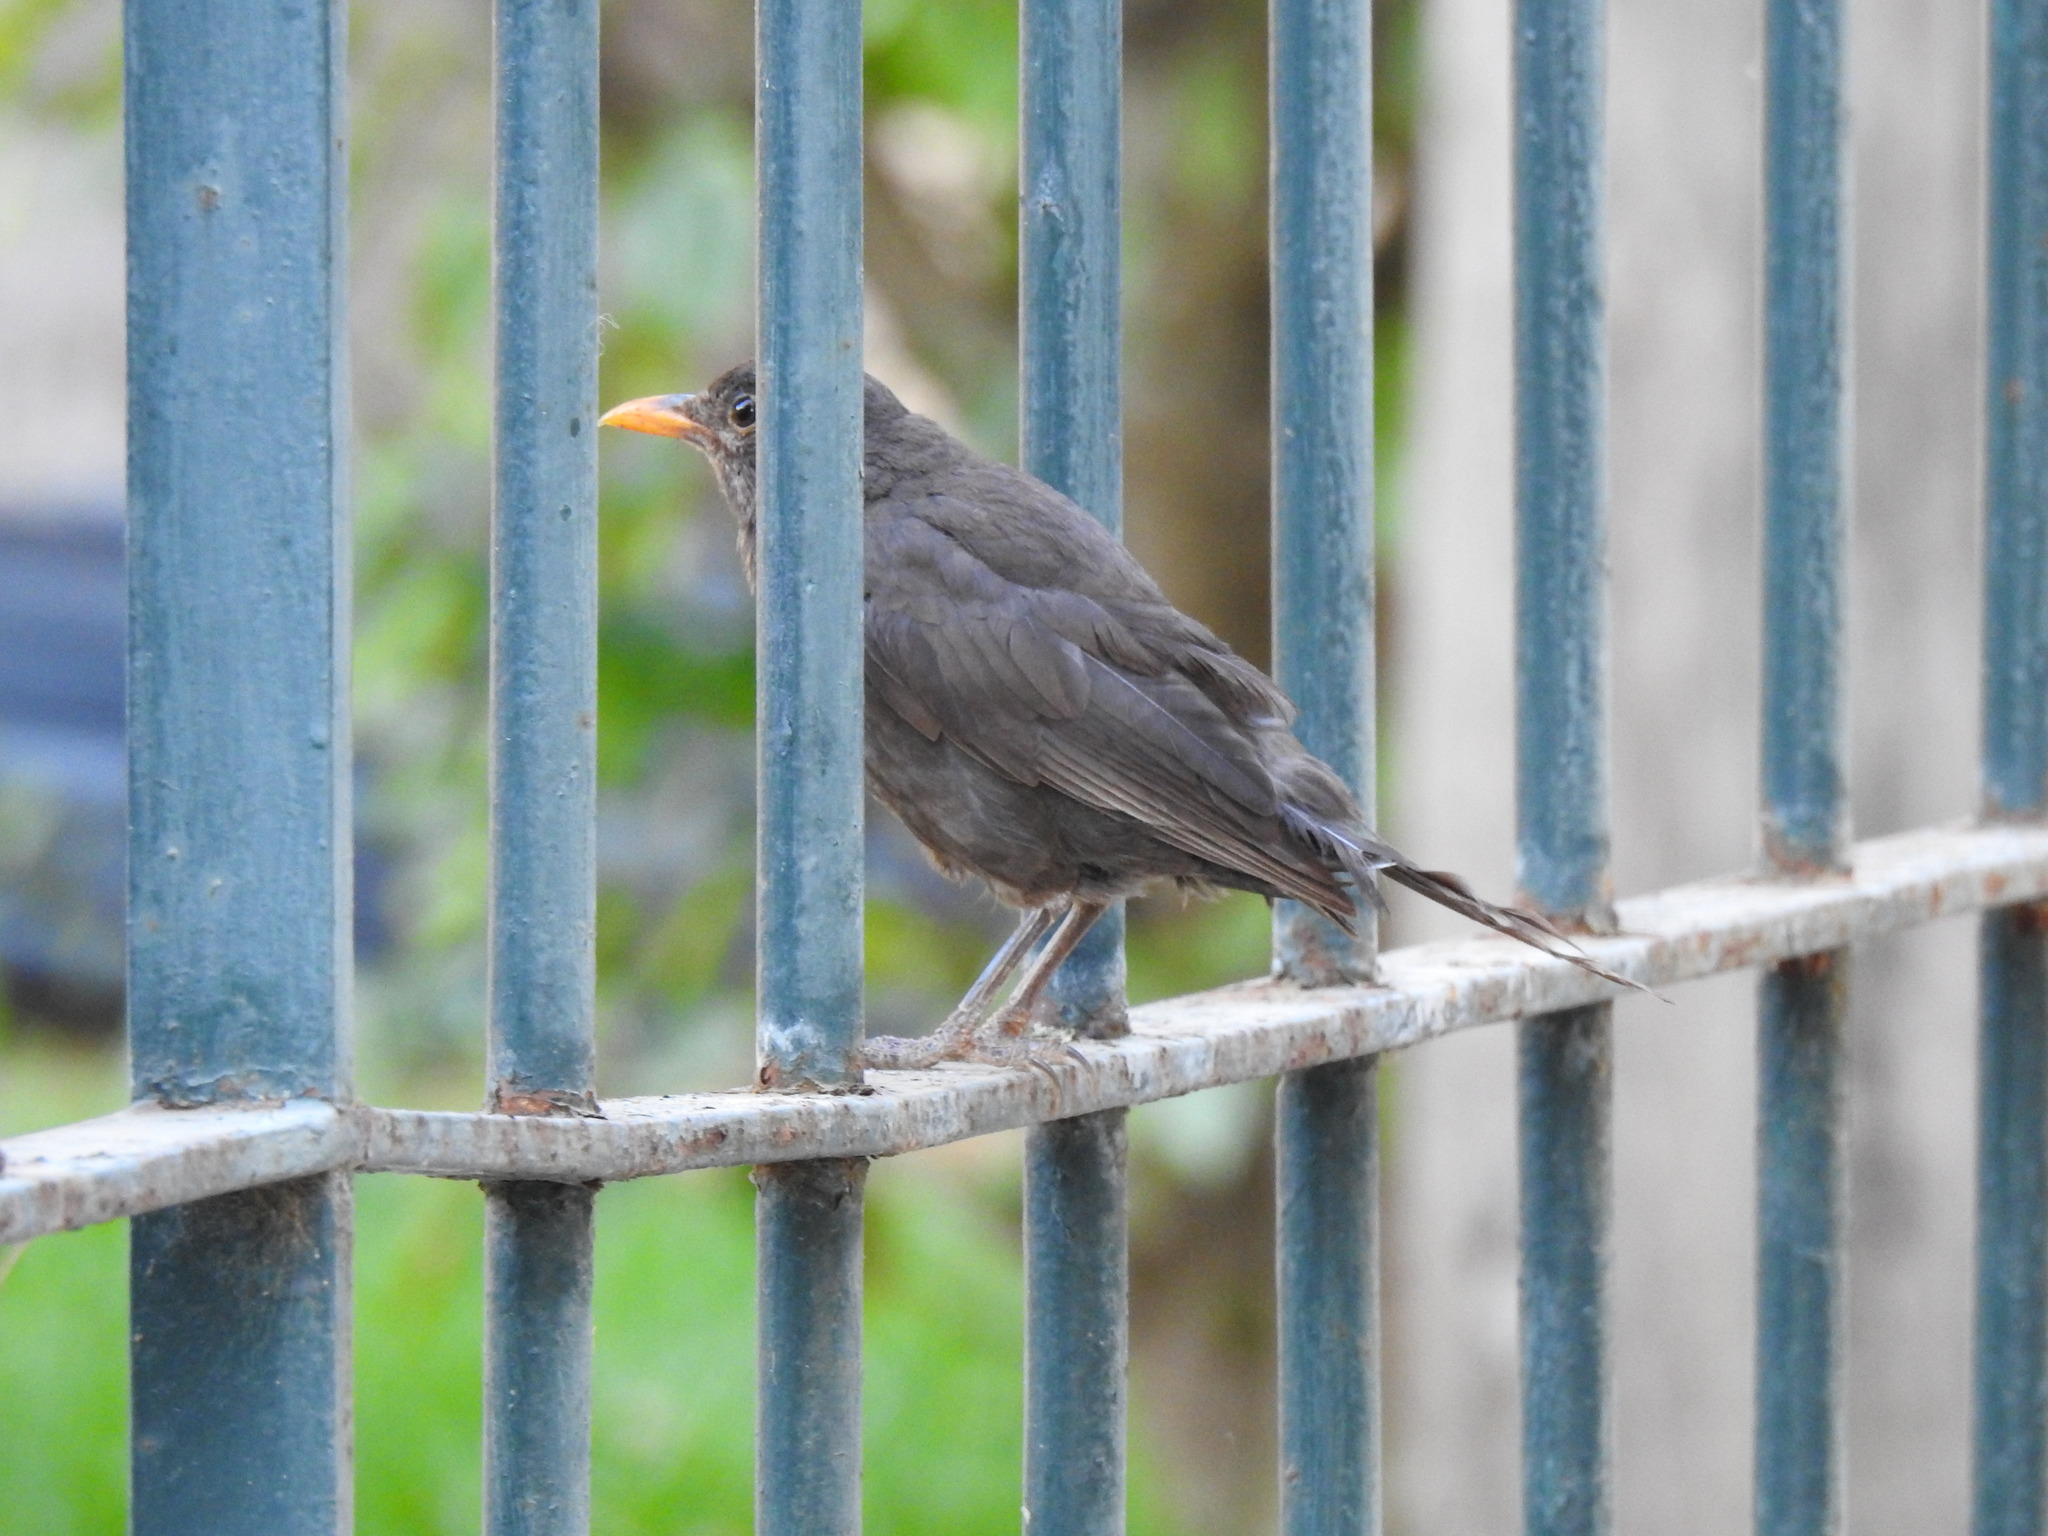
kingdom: Animalia
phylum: Chordata
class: Aves
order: Passeriformes
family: Turdidae
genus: Turdus
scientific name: Turdus merula
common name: Common blackbird
